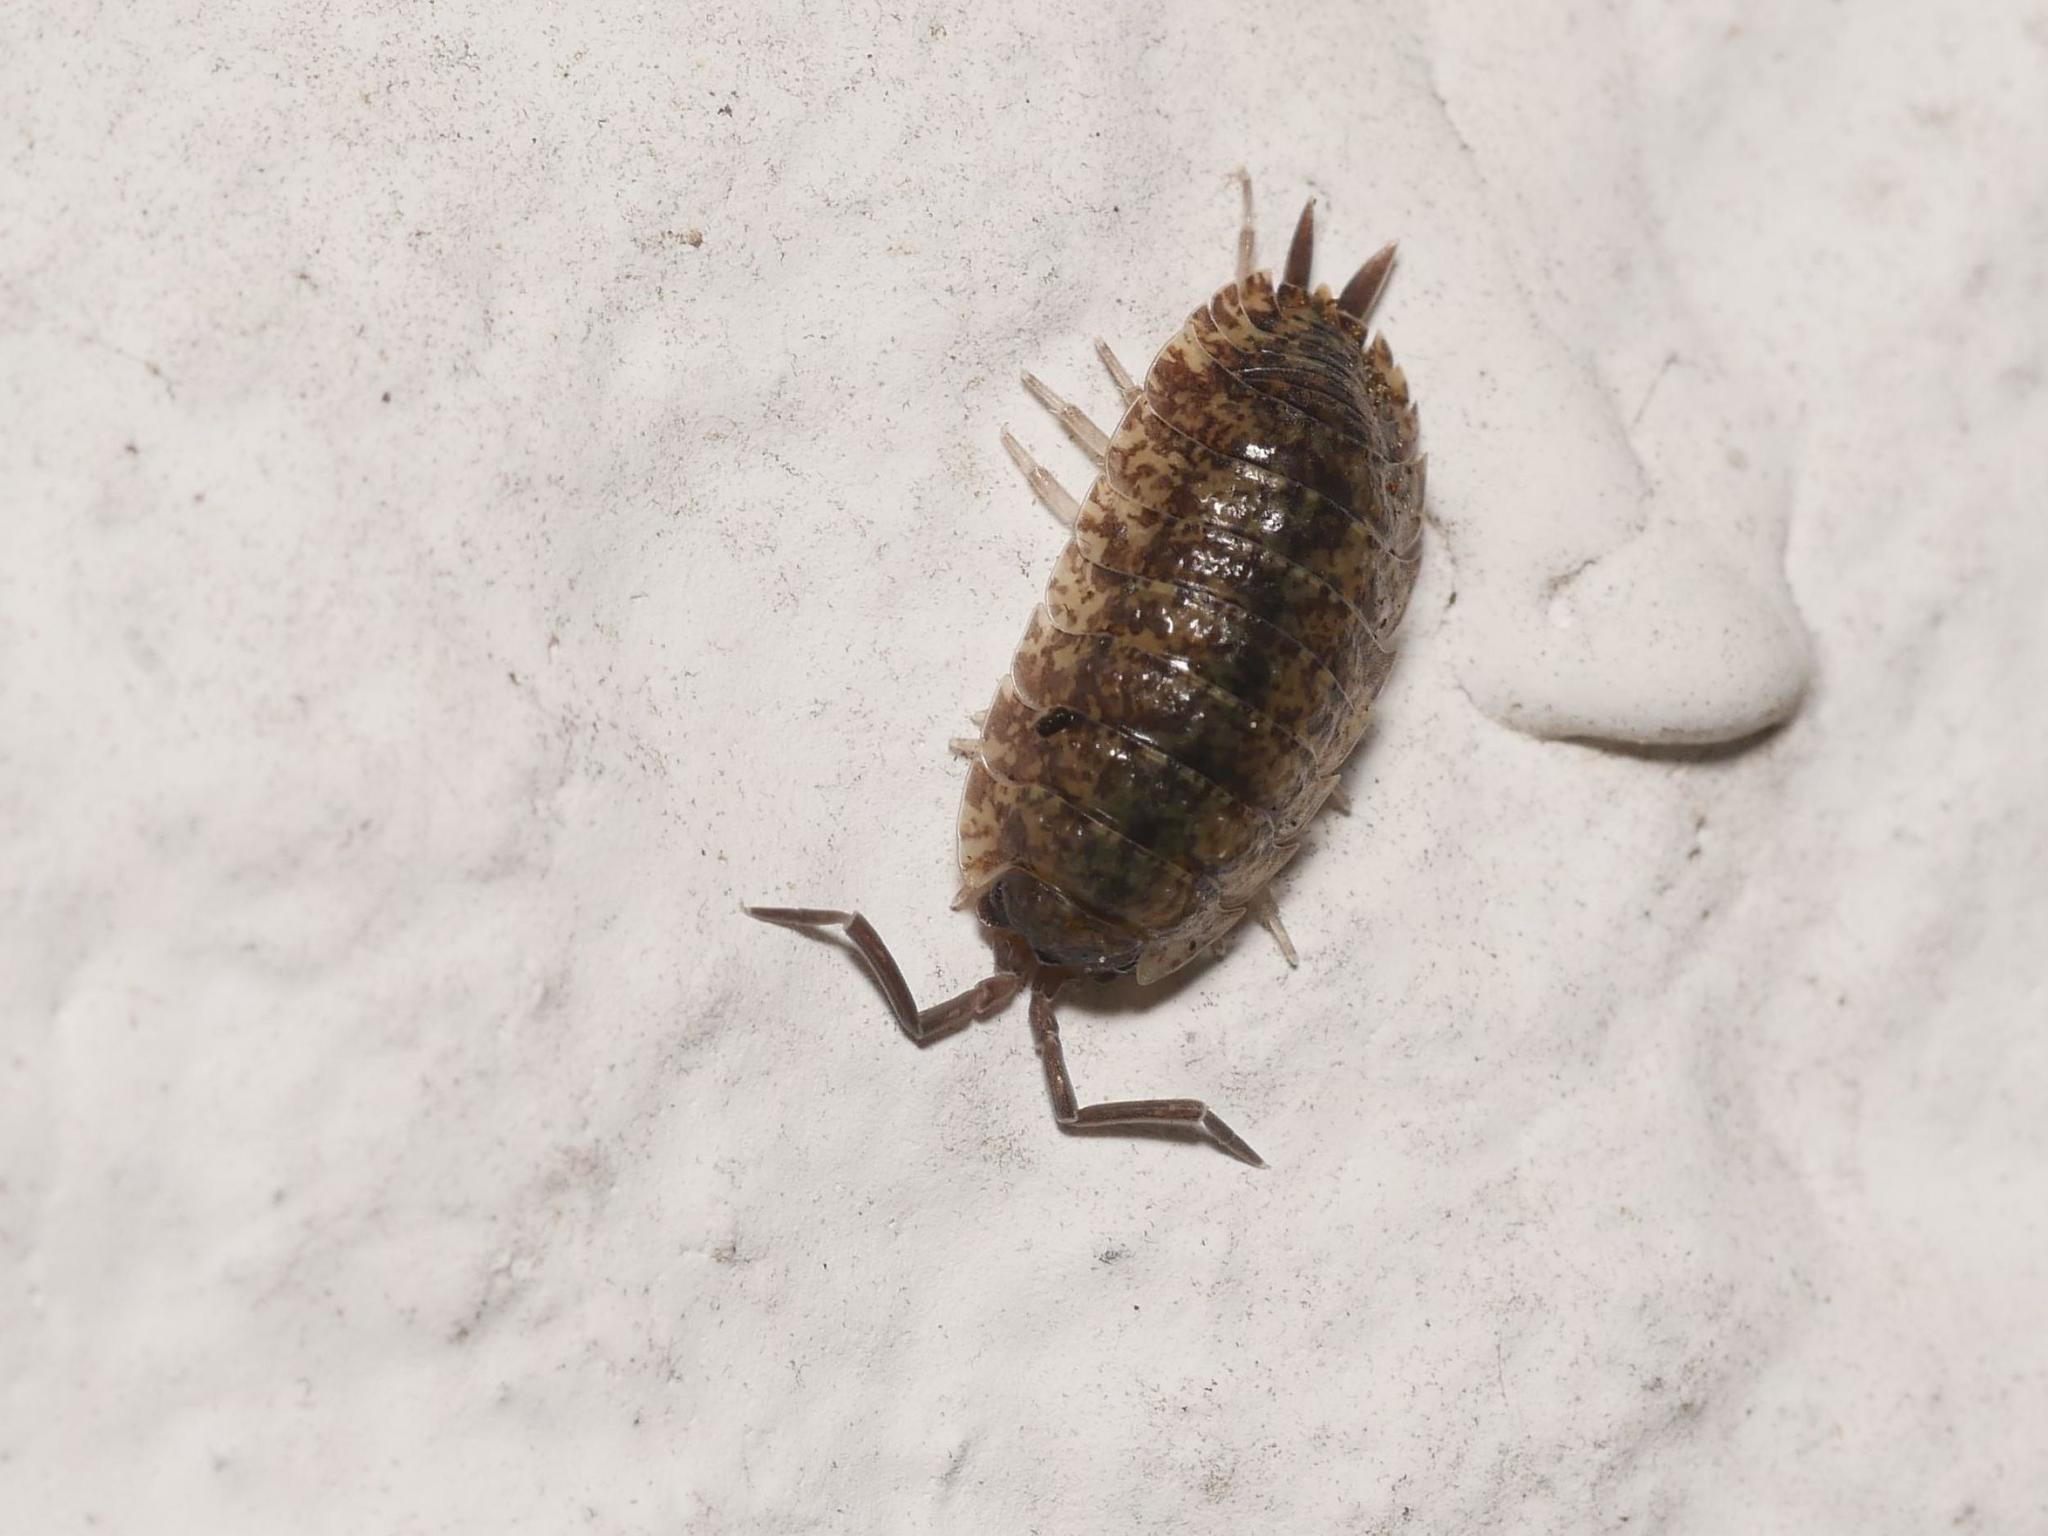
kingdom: Animalia
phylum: Arthropoda
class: Malacostraca
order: Isopoda
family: Porcellionidae
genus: Porcellio
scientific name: Porcellio scaber
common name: Common rough woodlouse
